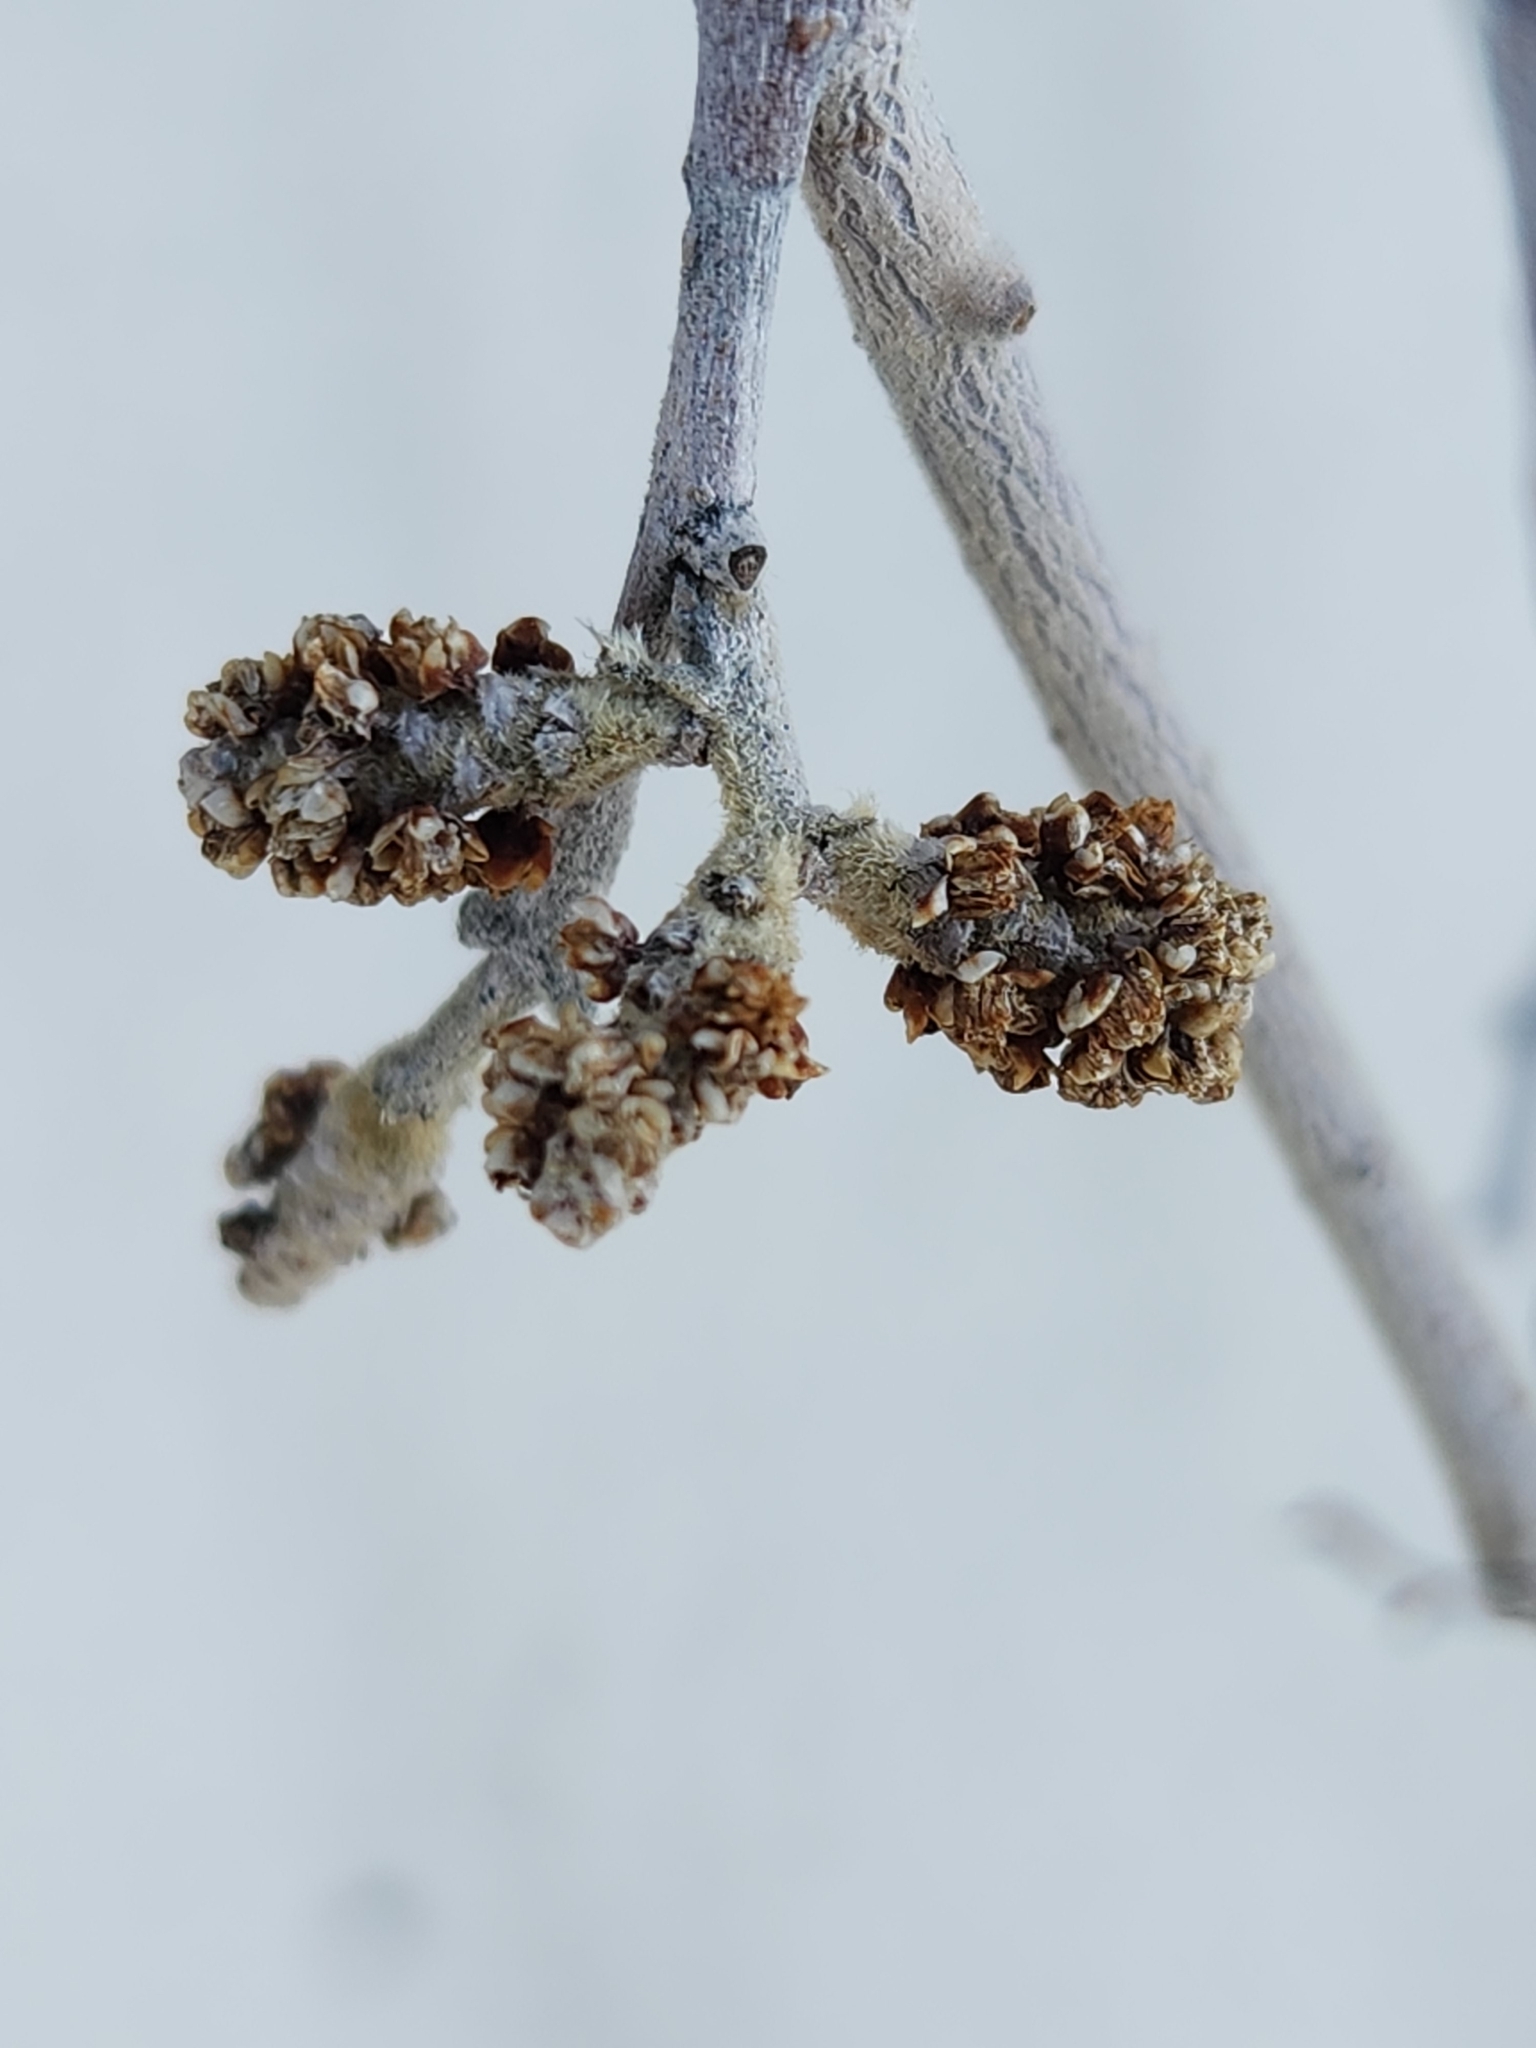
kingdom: Plantae
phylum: Tracheophyta
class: Magnoliopsida
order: Sapindales
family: Anacardiaceae
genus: Rhus
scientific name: Rhus trilobata
